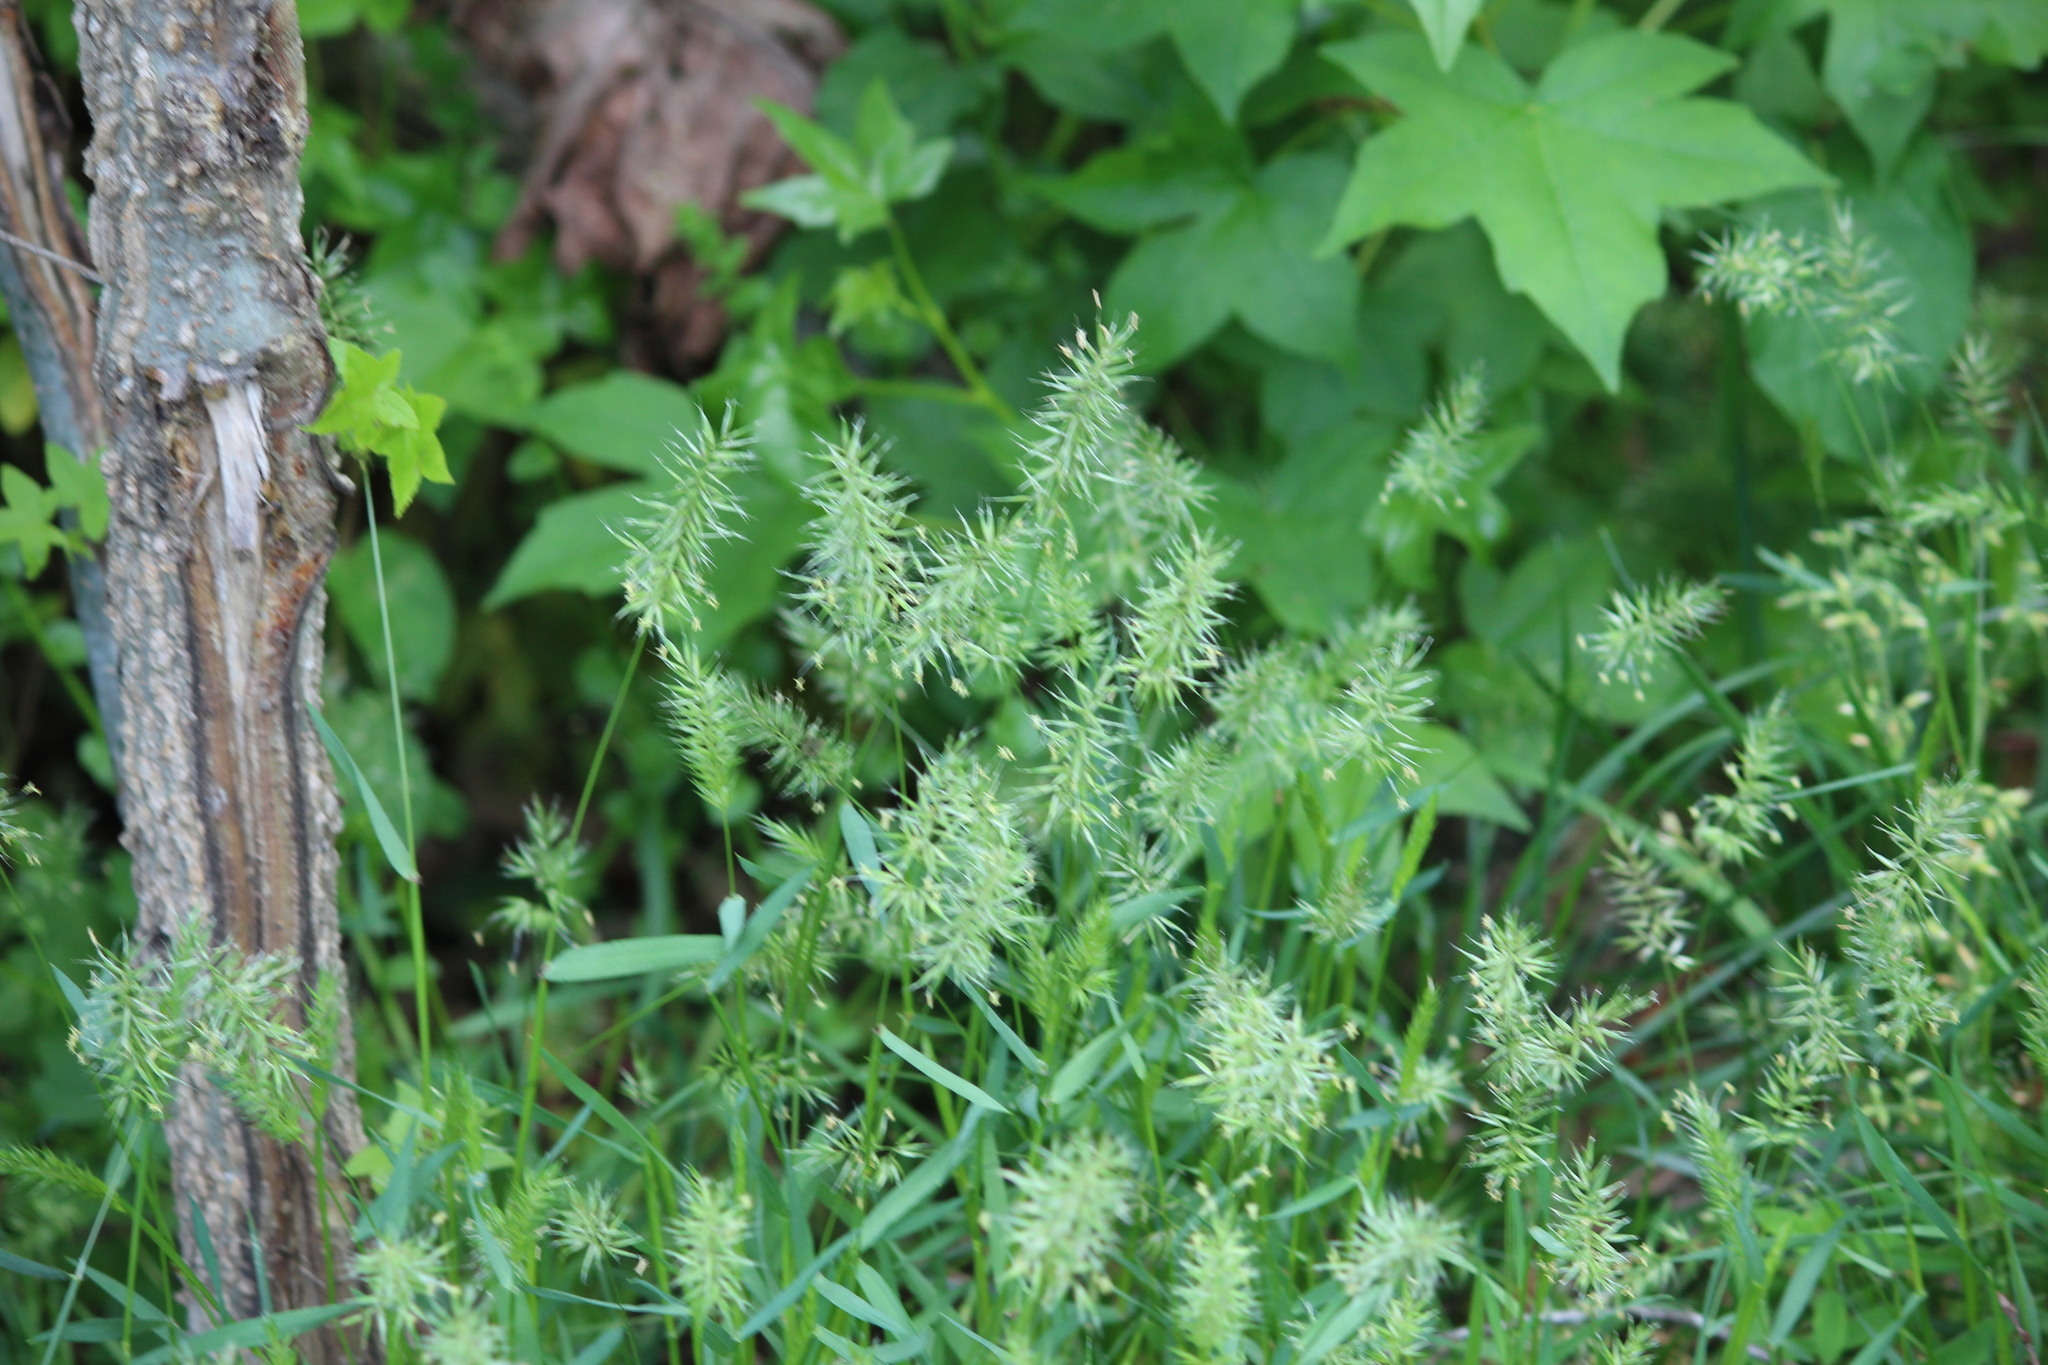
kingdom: Plantae
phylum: Tracheophyta
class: Liliopsida
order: Poales
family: Poaceae
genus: Anthoxanthum
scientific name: Anthoxanthum odoratum
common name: Sweet vernalgrass
